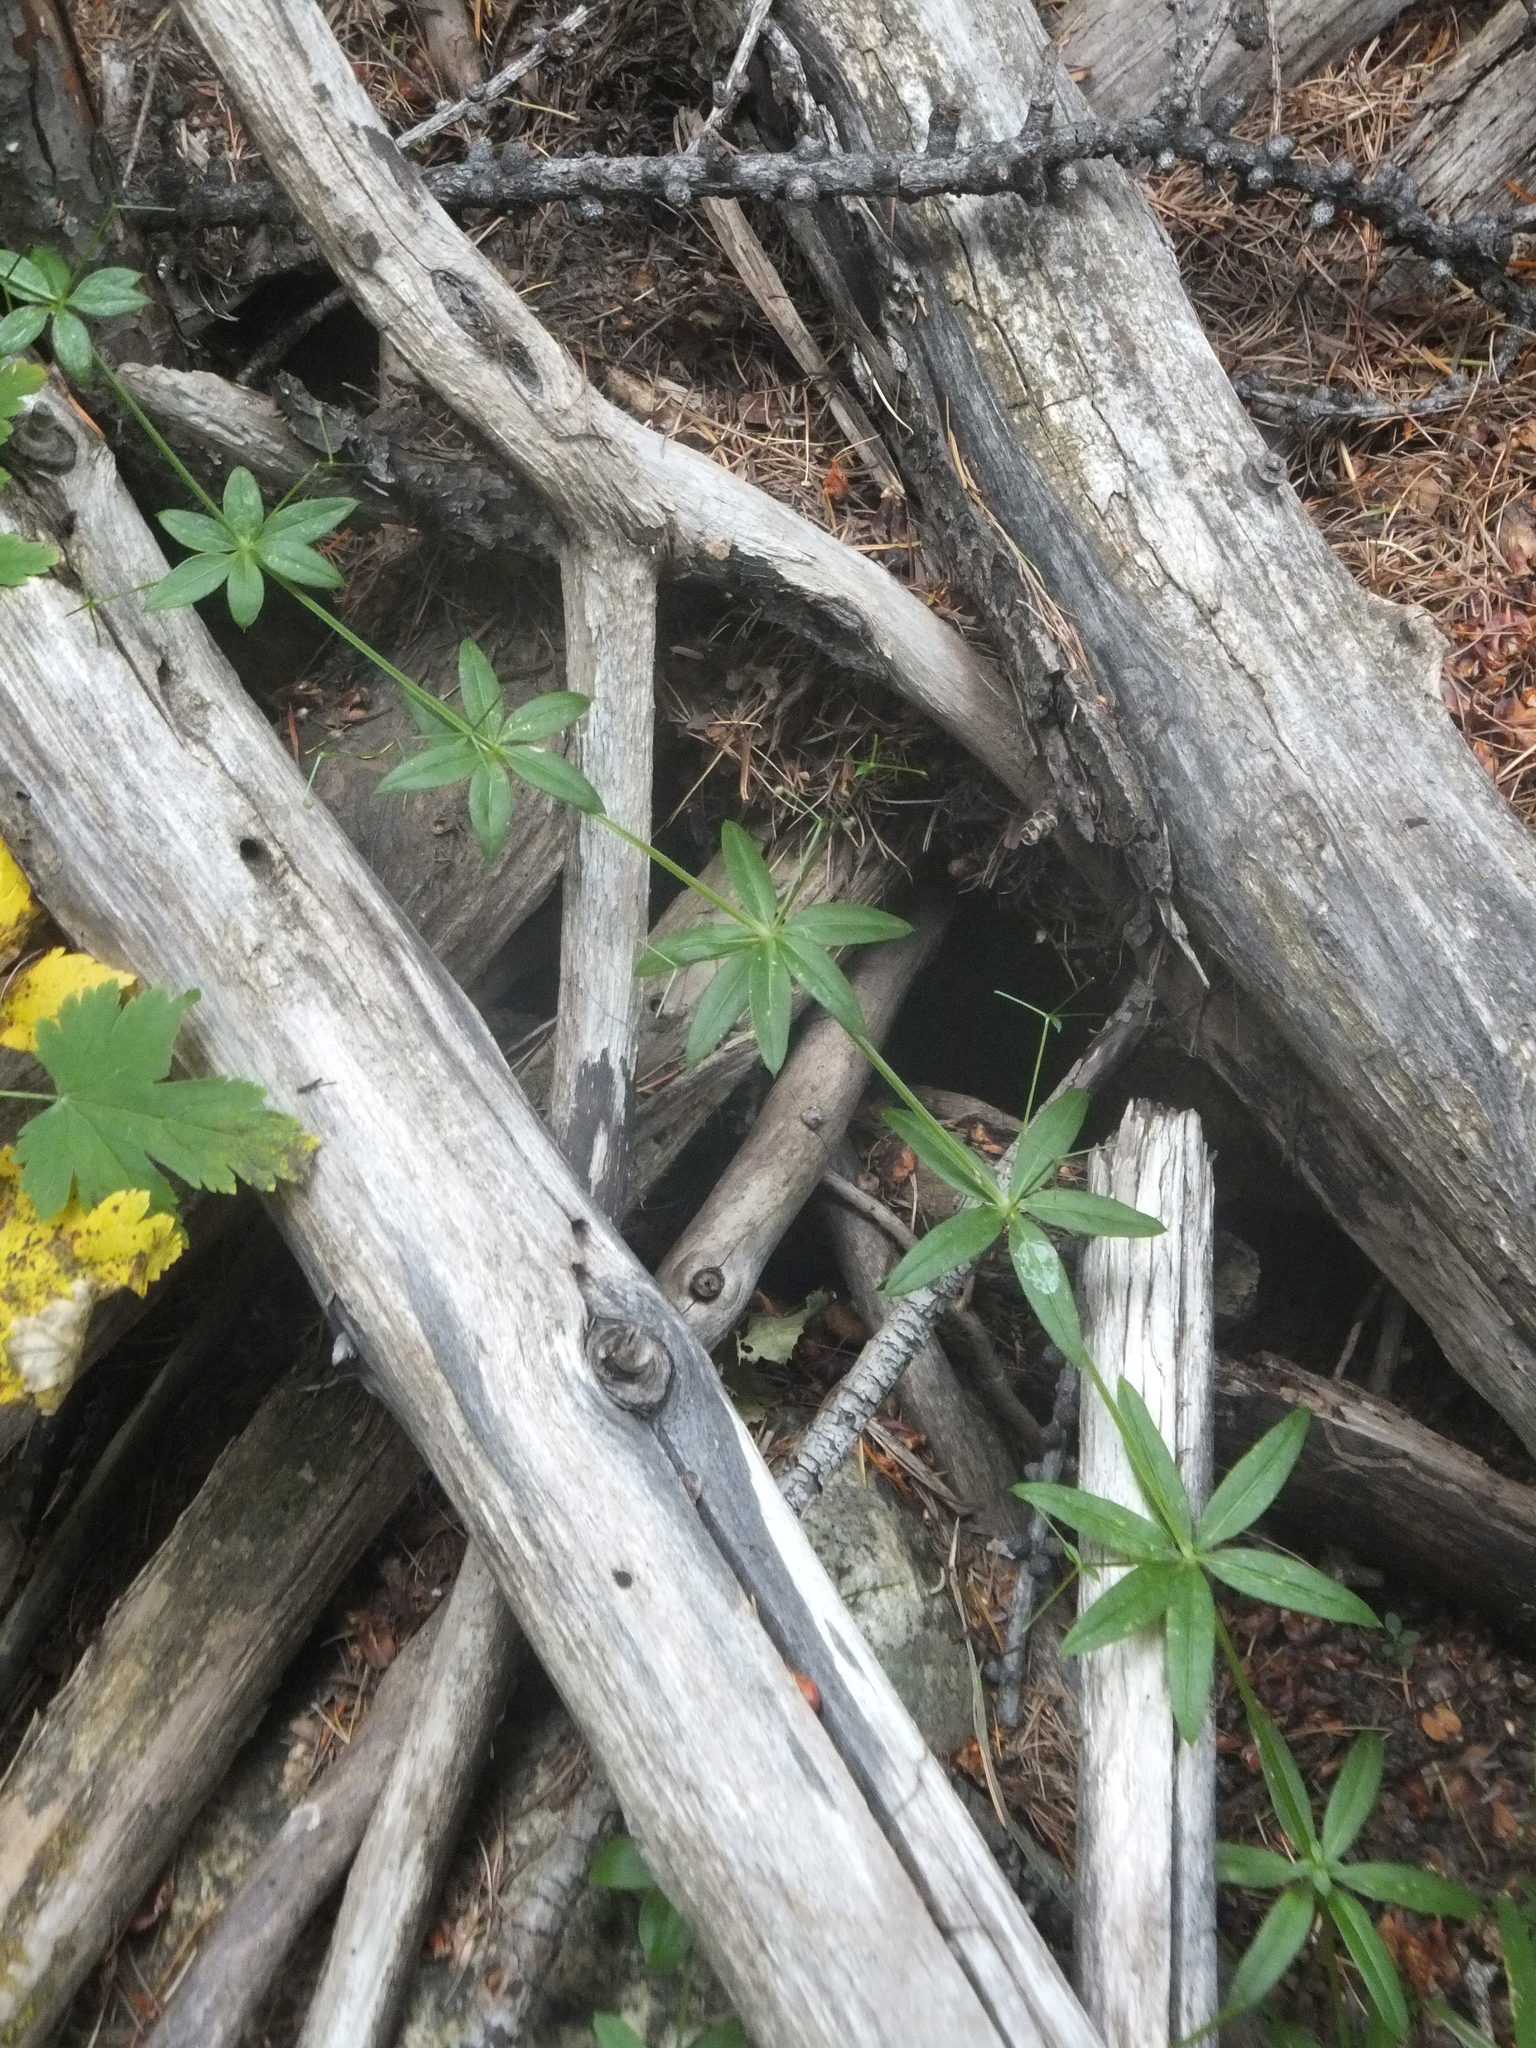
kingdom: Plantae
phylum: Tracheophyta
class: Magnoliopsida
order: Gentianales
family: Rubiaceae
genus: Galium
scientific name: Galium triflorum
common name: Fragrant bedstraw
